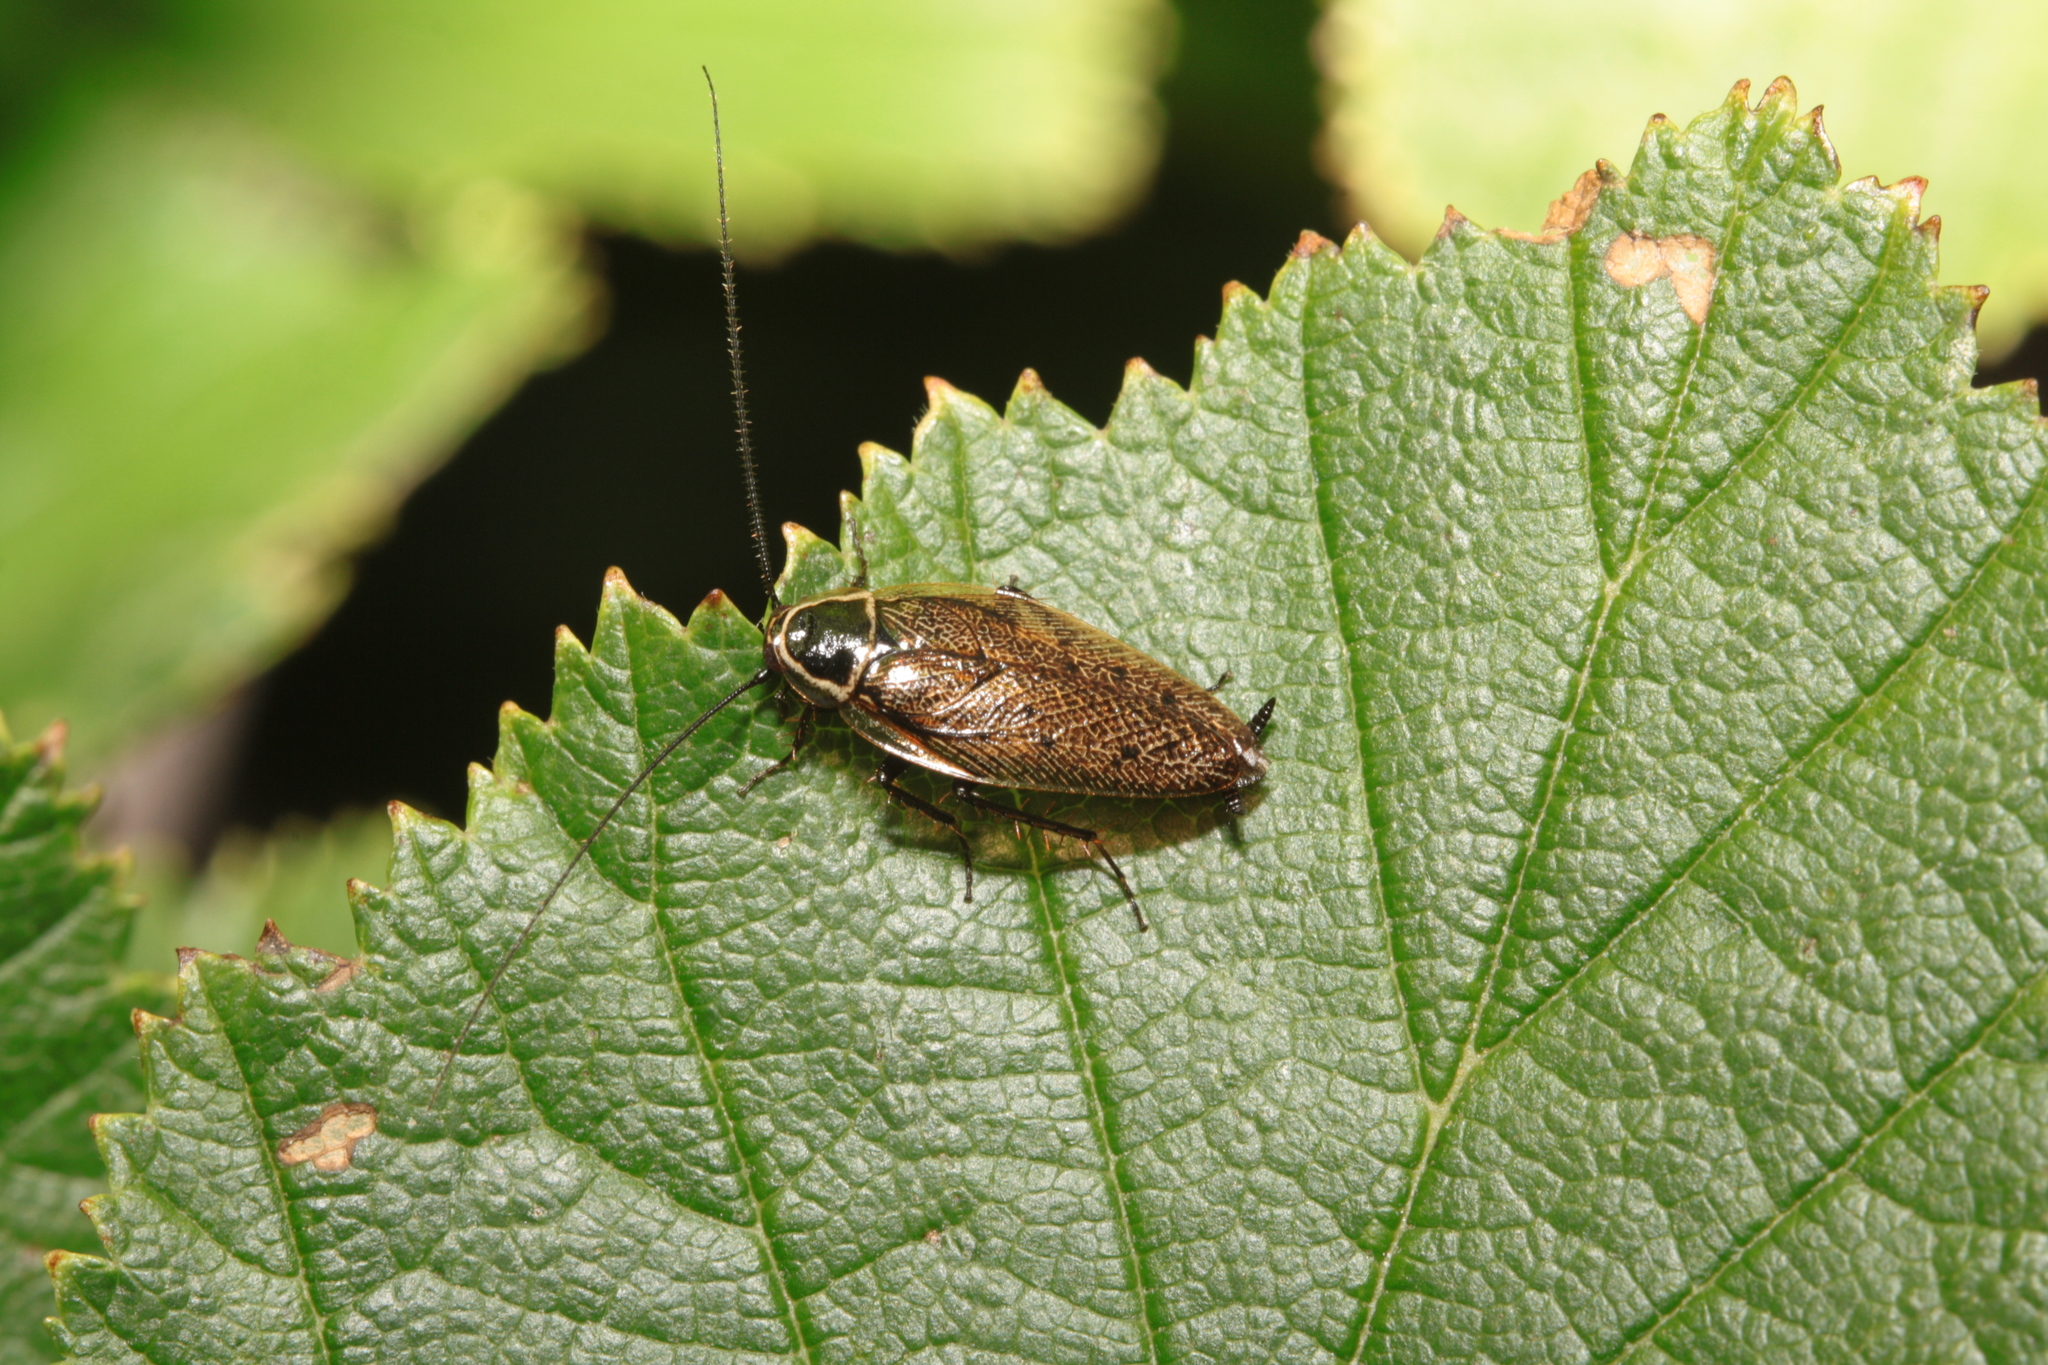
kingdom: Animalia
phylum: Arthropoda
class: Insecta
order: Blattodea
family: Ectobiidae
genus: Ectobius
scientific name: Ectobius sylvestris
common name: Forest cockroach
